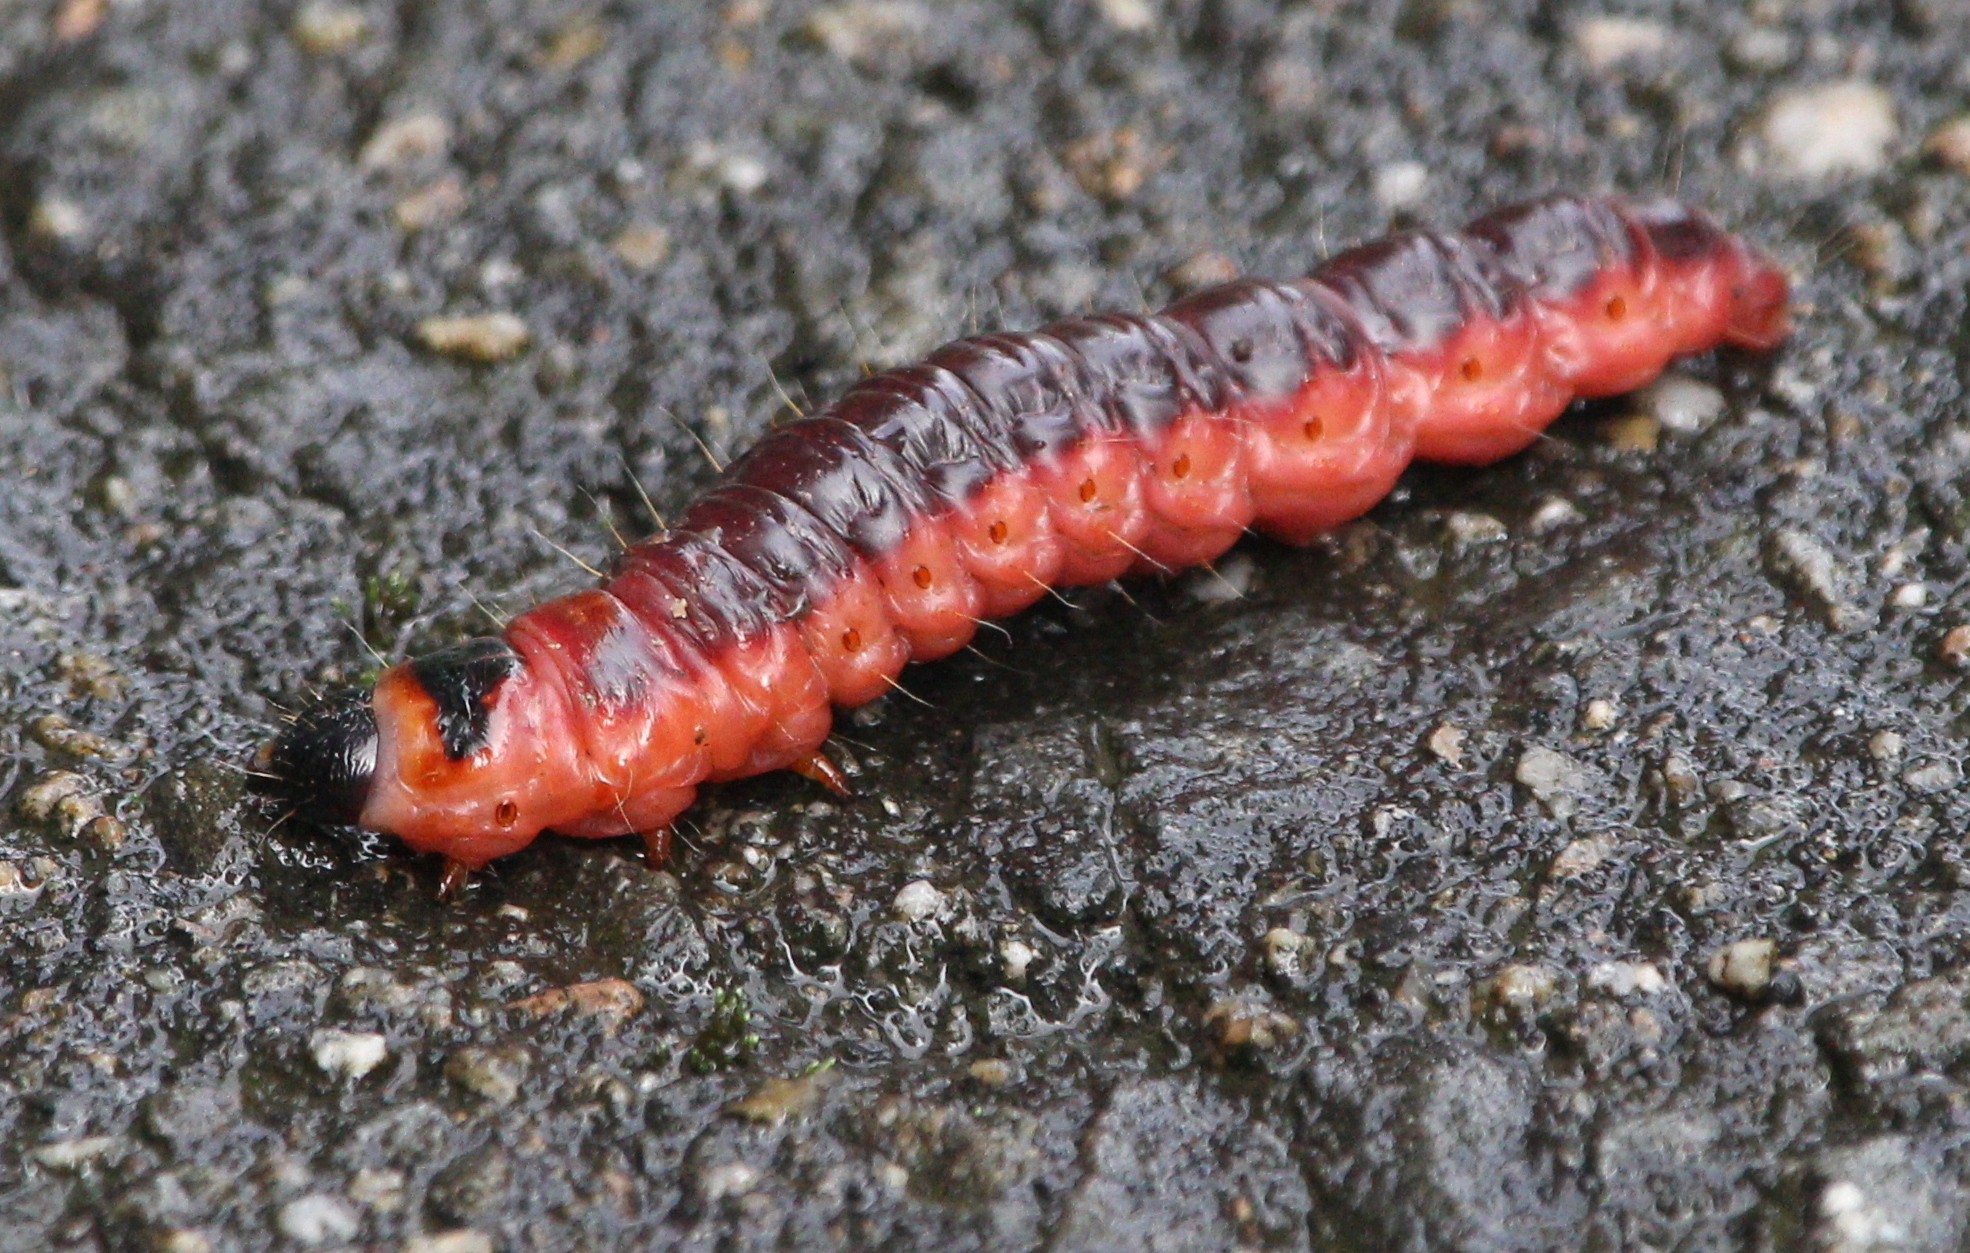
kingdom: Animalia
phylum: Arthropoda
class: Insecta
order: Lepidoptera
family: Cossidae
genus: Cossus
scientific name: Cossus cossus
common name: Goat moth
